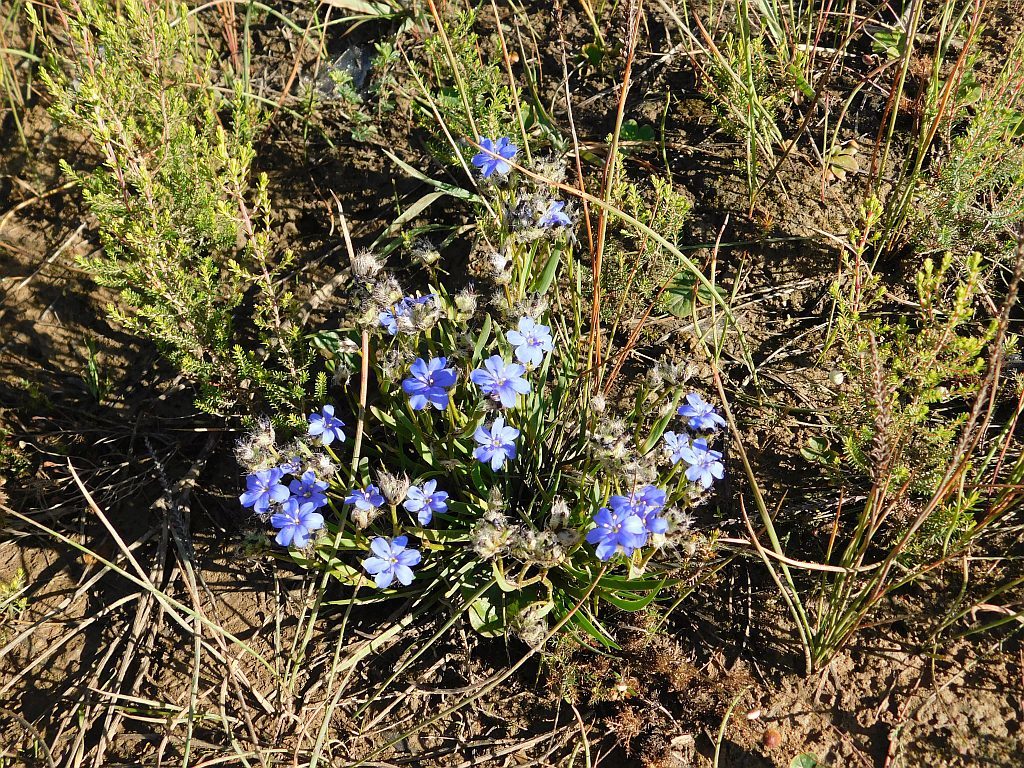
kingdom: Plantae
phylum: Tracheophyta
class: Liliopsida
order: Asparagales
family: Iridaceae
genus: Aristea
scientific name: Aristea africana
